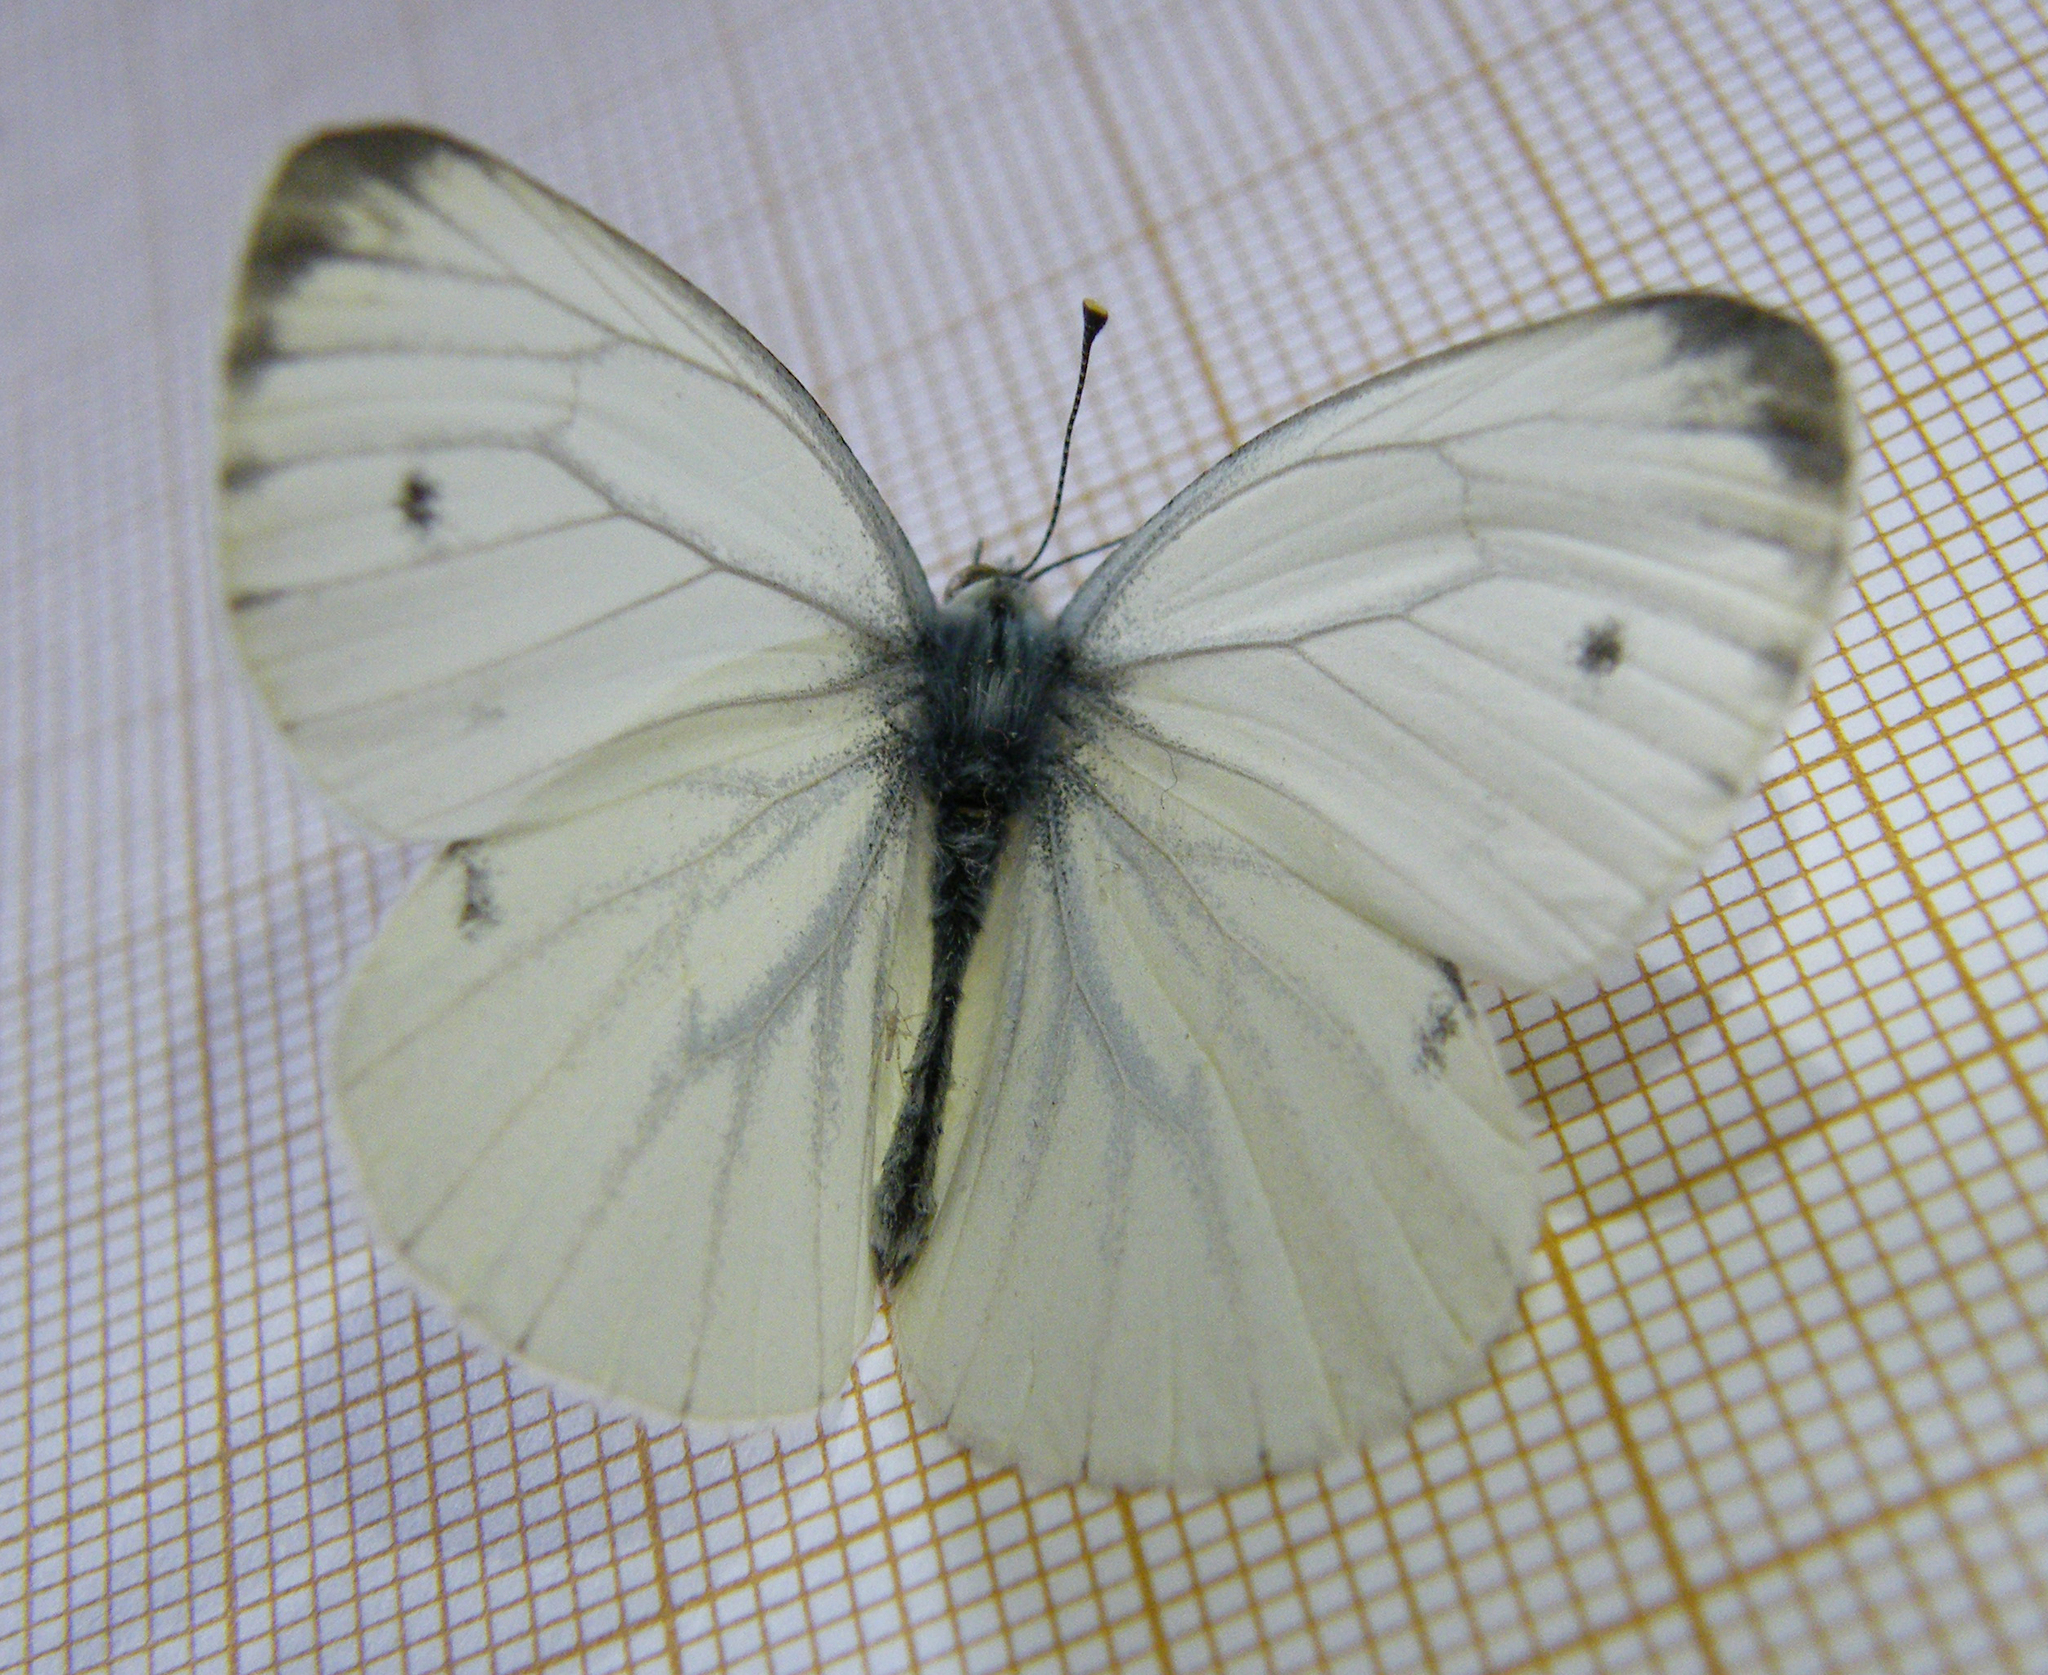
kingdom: Animalia
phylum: Arthropoda
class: Insecta
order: Lepidoptera
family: Pieridae
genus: Pieris
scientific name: Pieris napi
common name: Green-veined white
